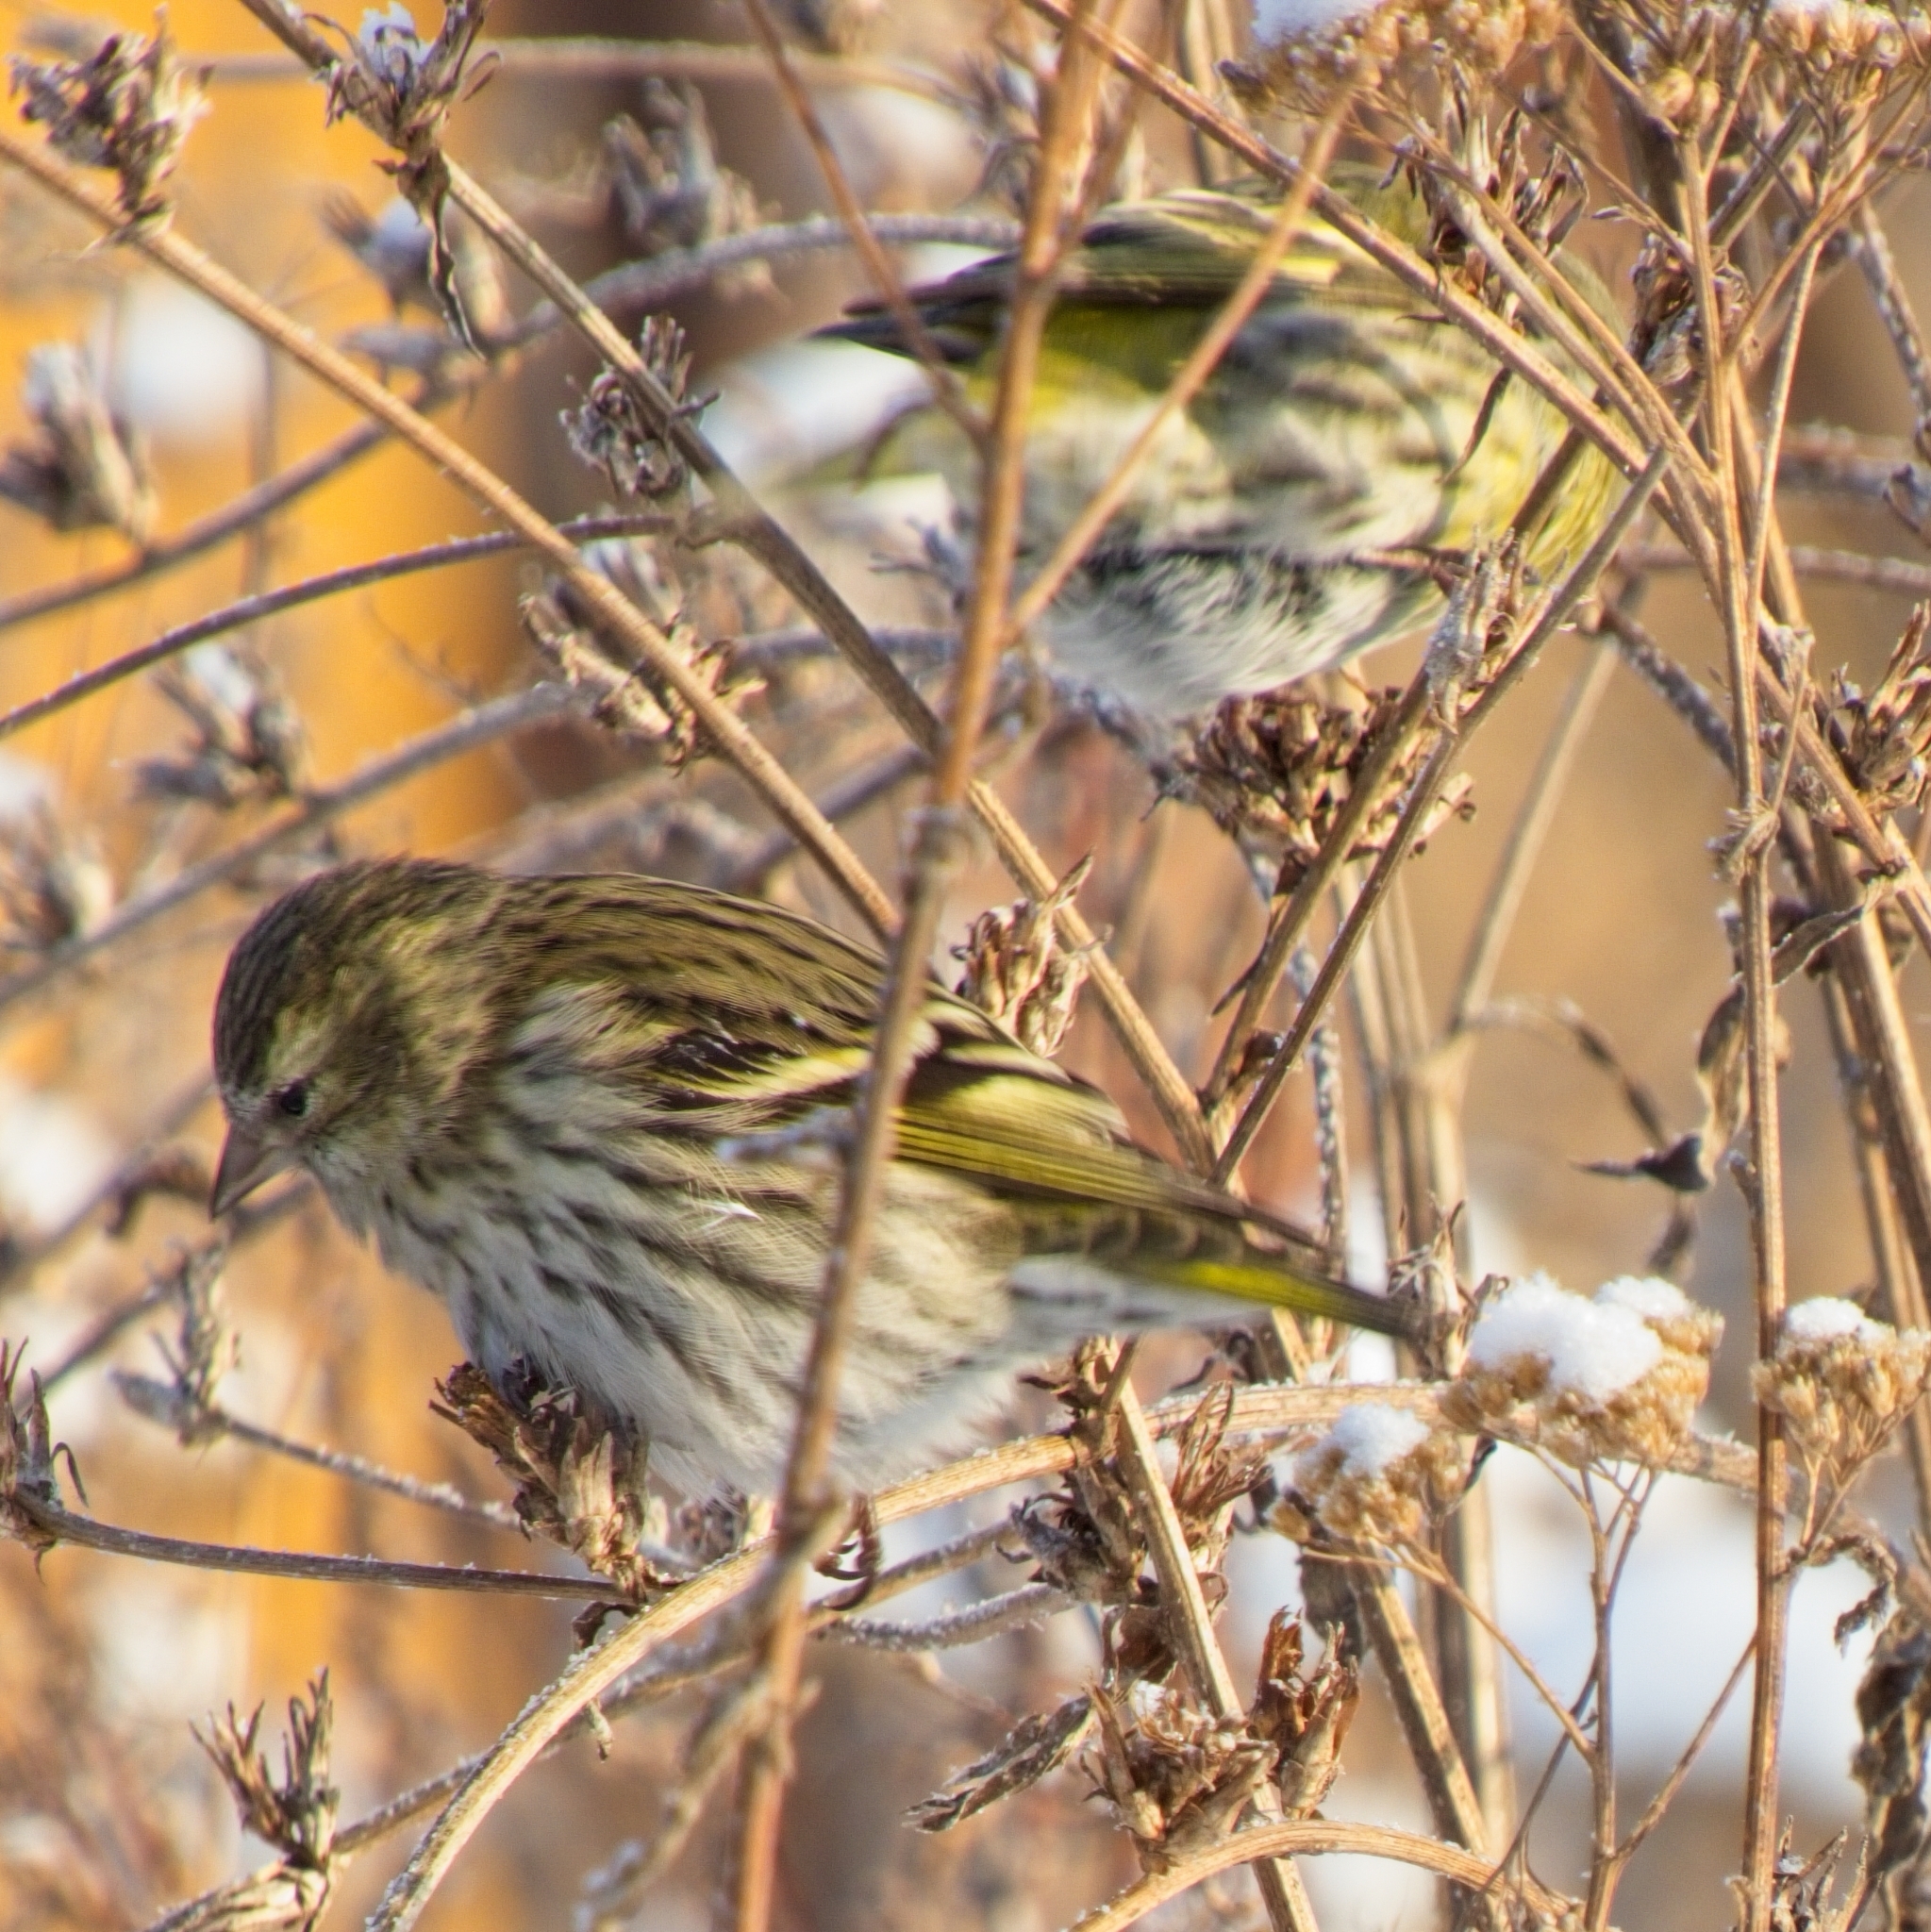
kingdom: Animalia
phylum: Chordata
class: Aves
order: Passeriformes
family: Fringillidae
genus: Spinus
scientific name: Spinus spinus
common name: Eurasian siskin
